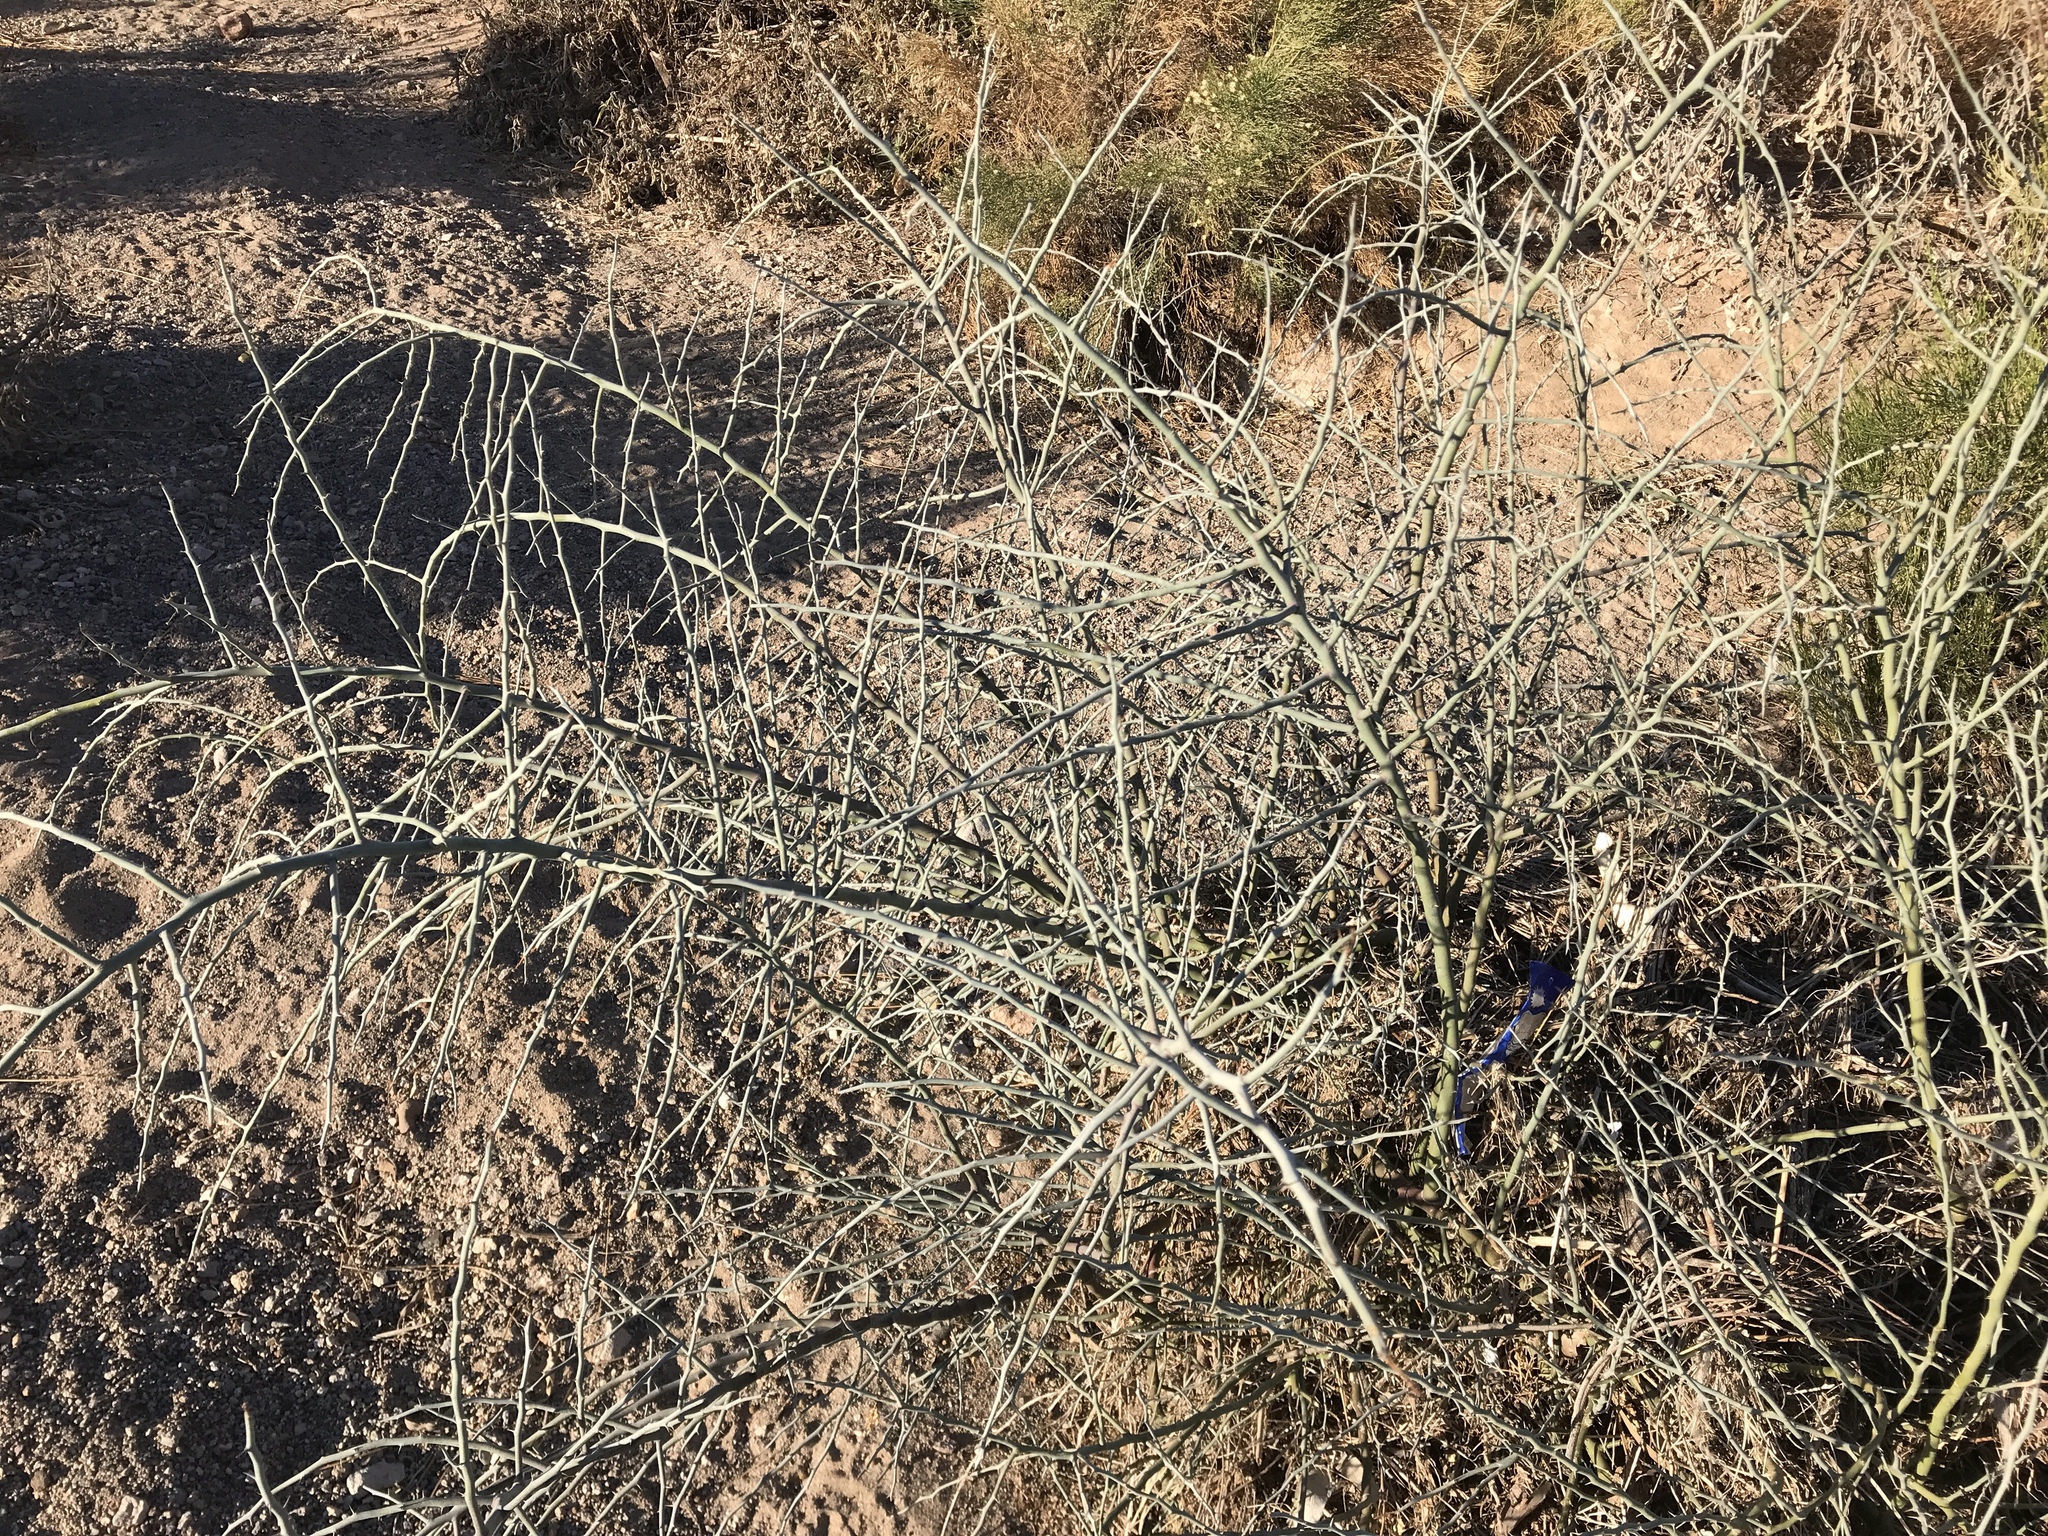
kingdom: Plantae
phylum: Tracheophyta
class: Magnoliopsida
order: Fabales
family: Fabaceae
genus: Parkinsonia
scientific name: Parkinsonia florida
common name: Blue paloverde
